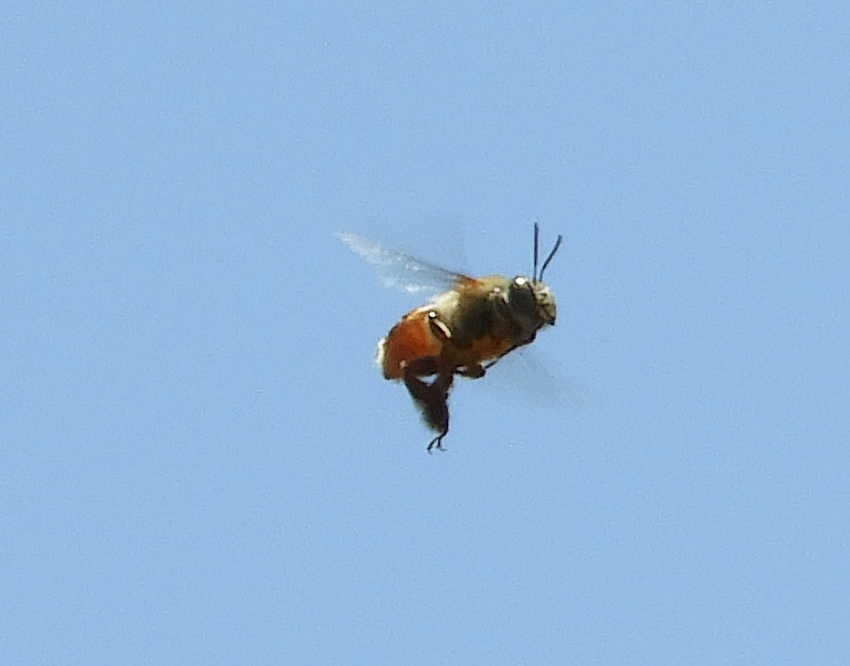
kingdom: Animalia
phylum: Arthropoda
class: Insecta
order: Hymenoptera
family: Apidae
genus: Centris
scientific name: Centris
